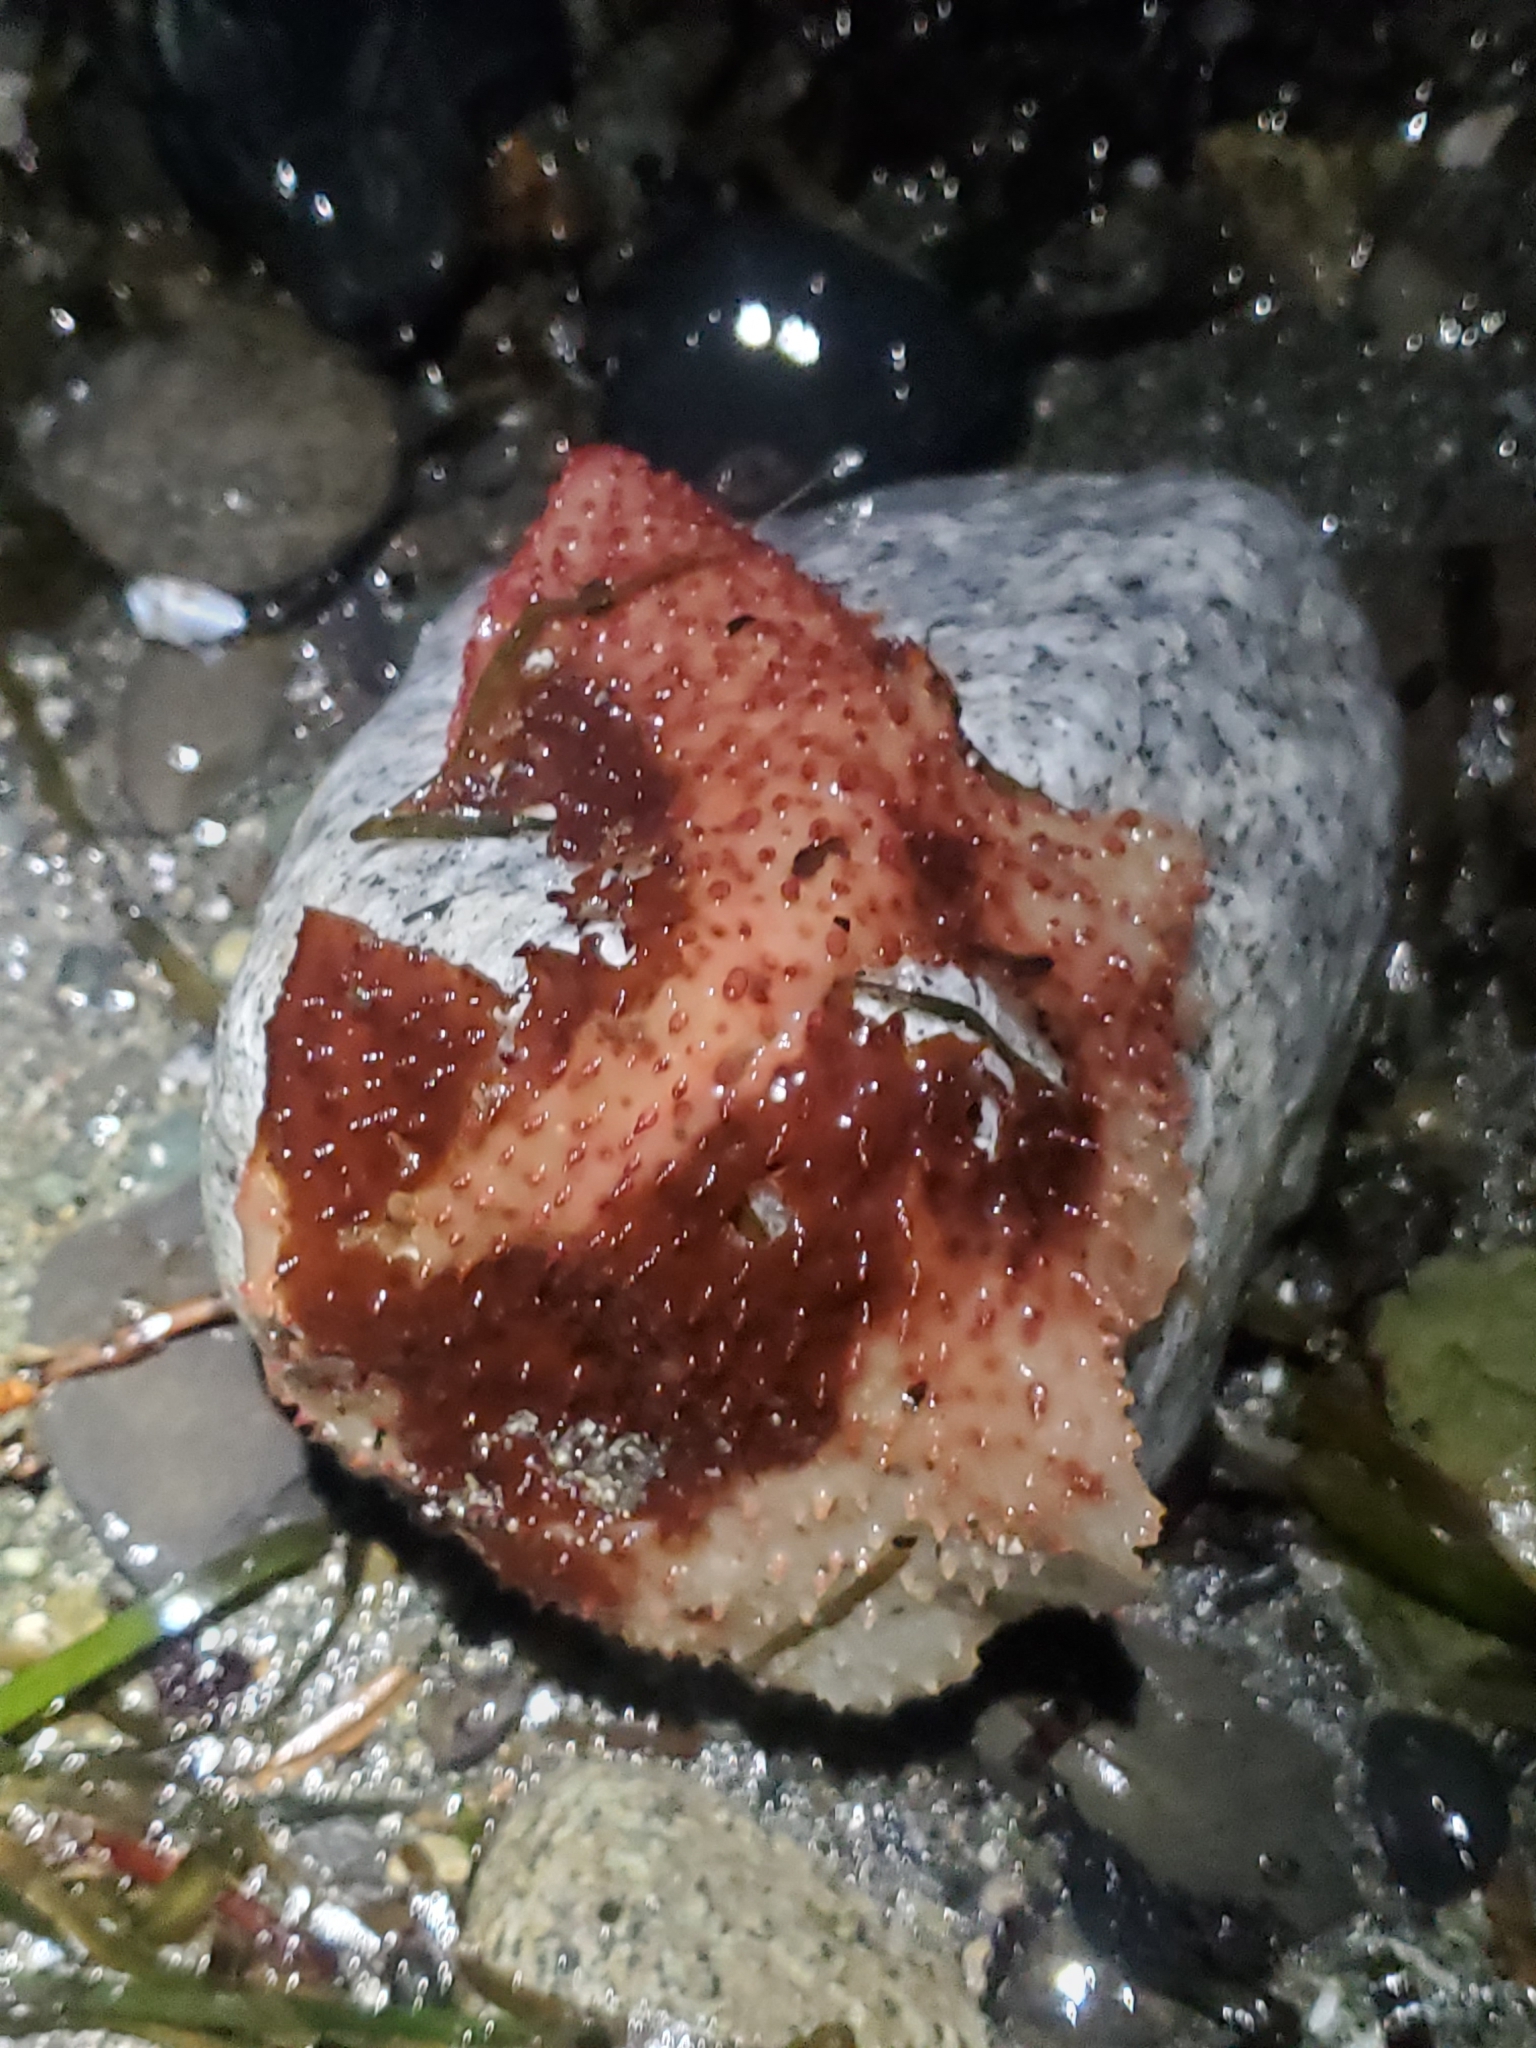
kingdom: Plantae
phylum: Rhodophyta
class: Florideophyceae
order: Gigartinales
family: Gigartinaceae
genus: Chondracanthus
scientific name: Chondracanthus exasperatus
